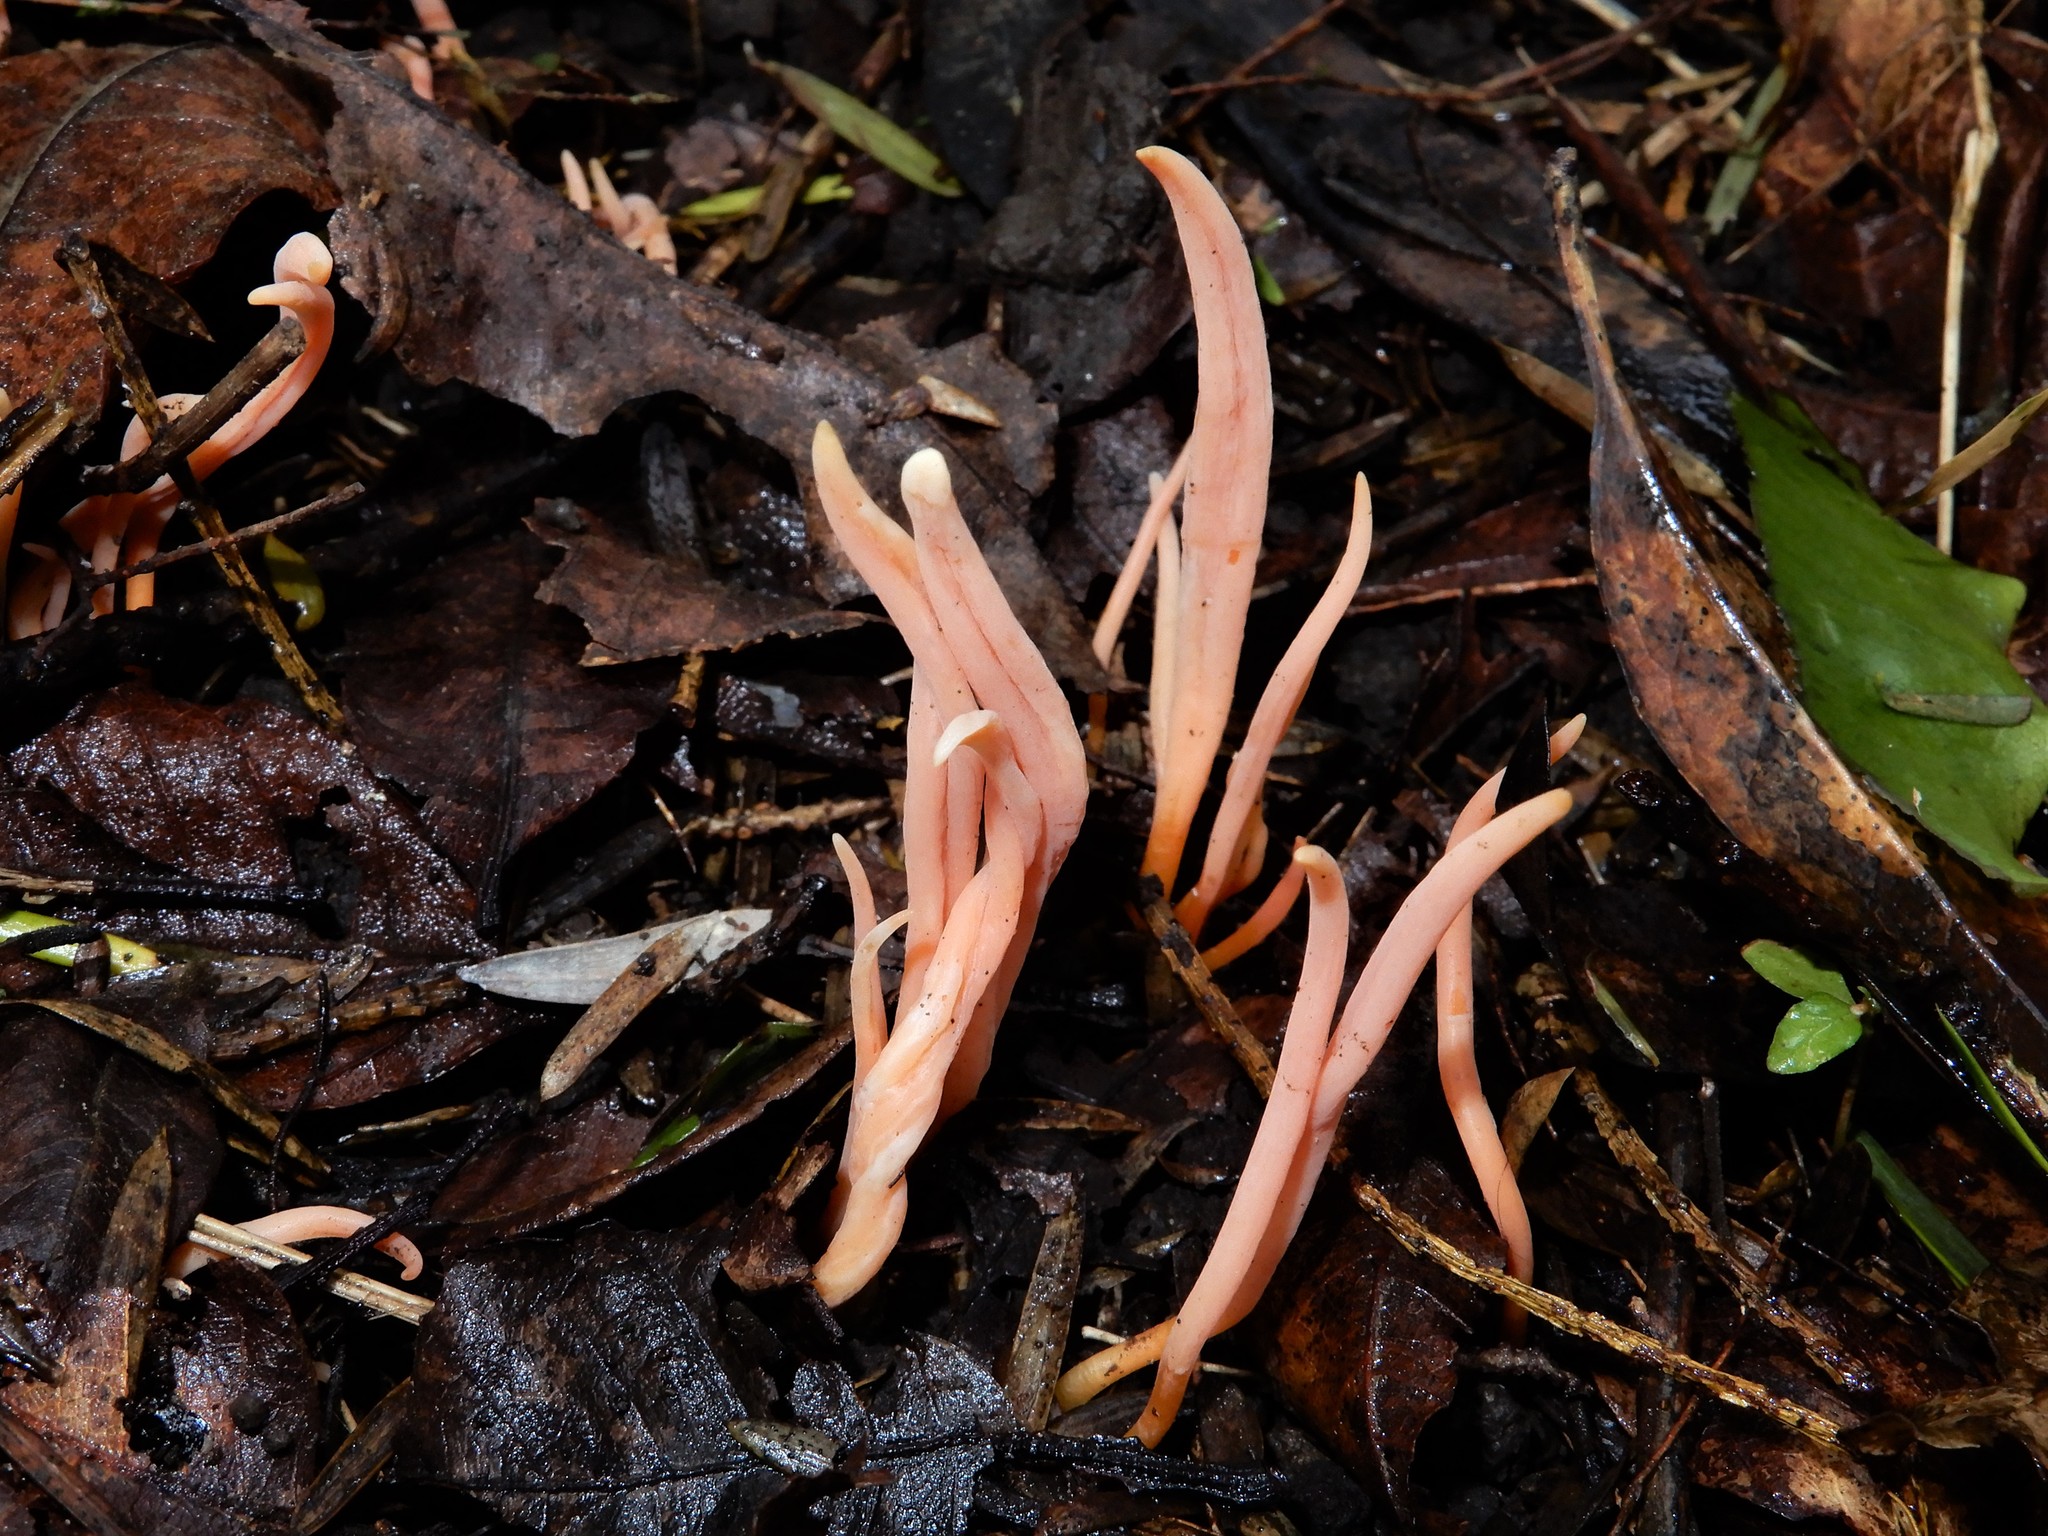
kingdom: Fungi
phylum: Basidiomycota
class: Agaricomycetes
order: Agaricales
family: Clavariaceae
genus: Clavulinopsis
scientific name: Clavulinopsis
